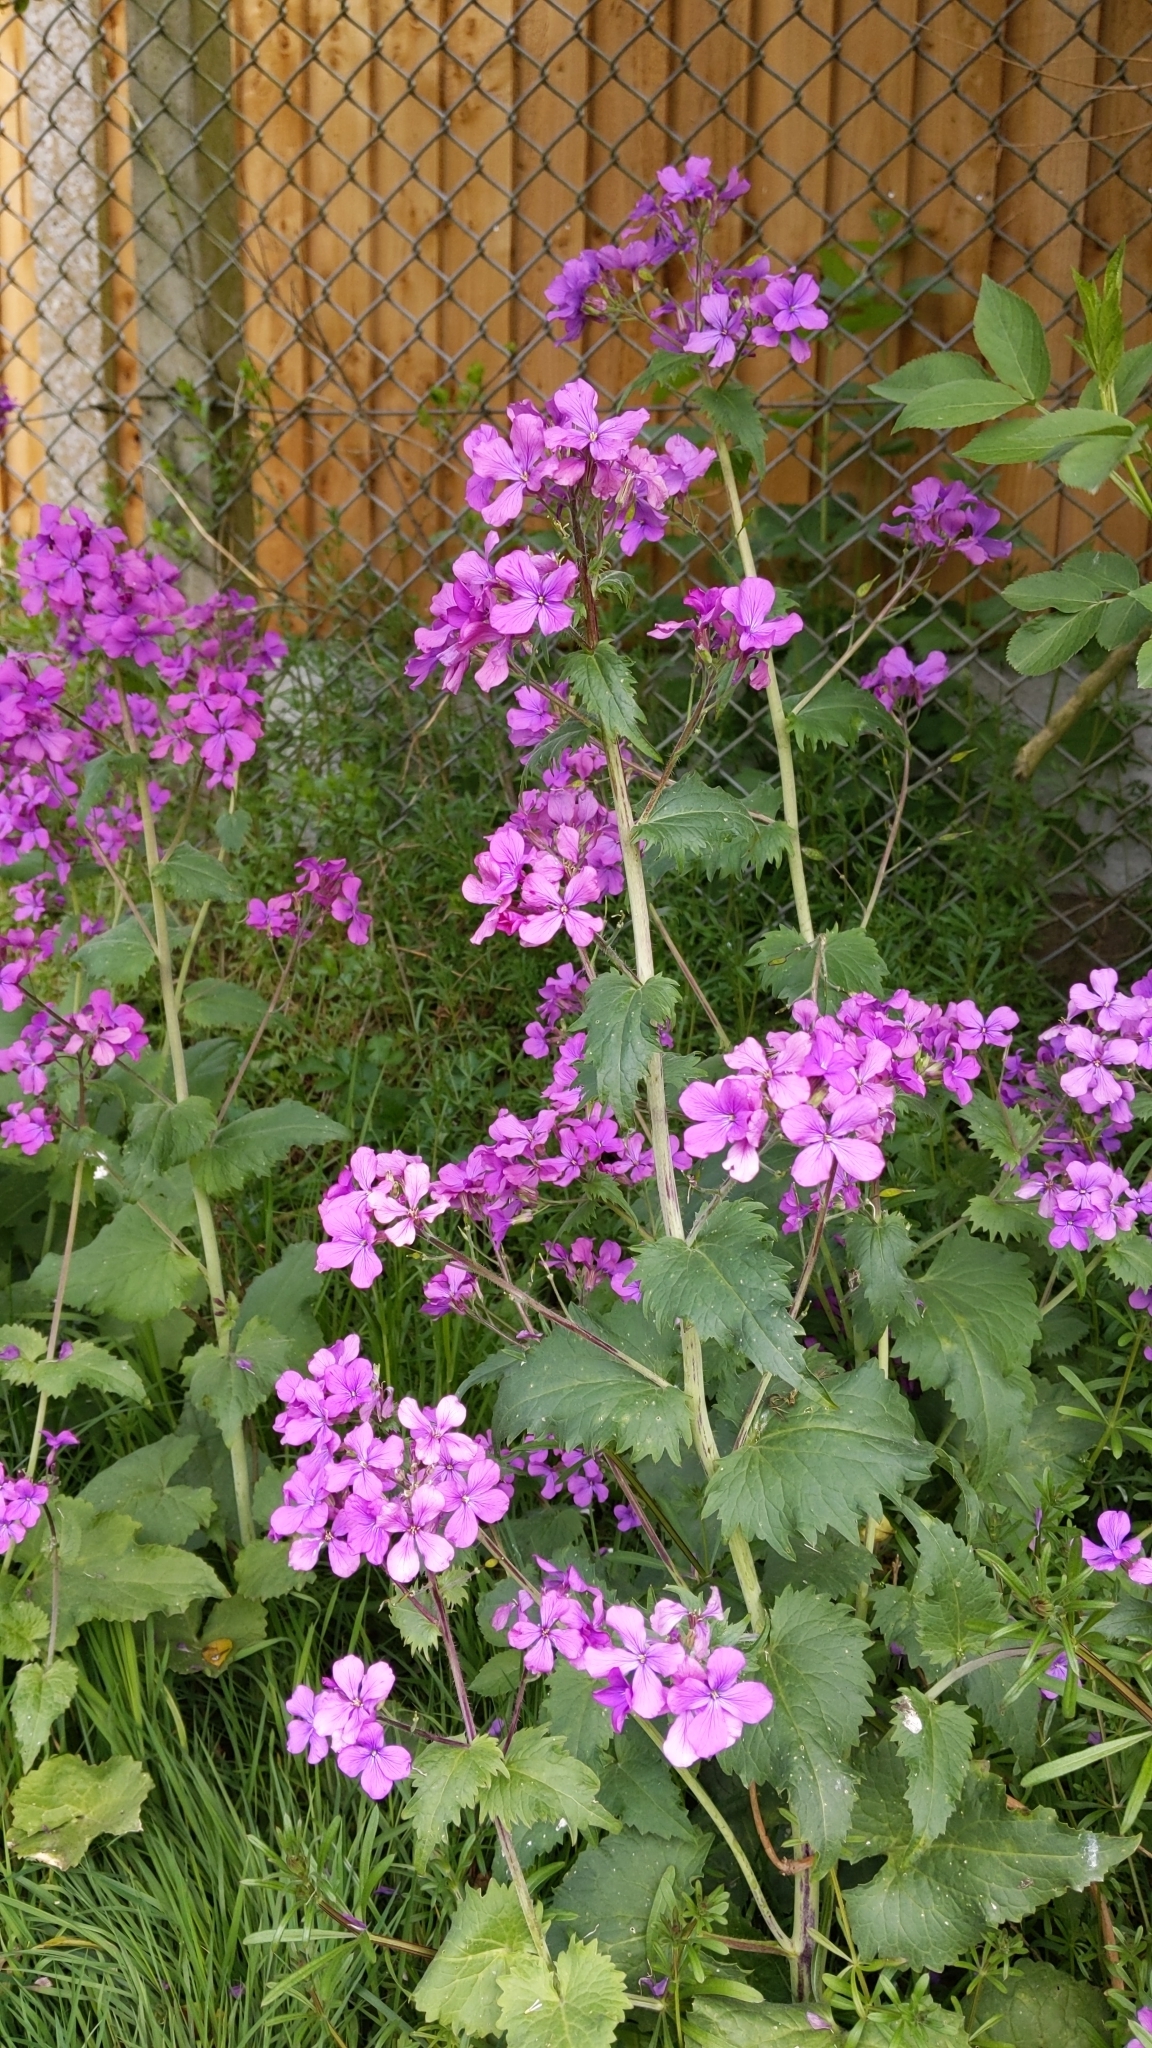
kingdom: Plantae
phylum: Tracheophyta
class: Magnoliopsida
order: Brassicales
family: Brassicaceae
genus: Lunaria
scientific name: Lunaria annua
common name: Honesty
